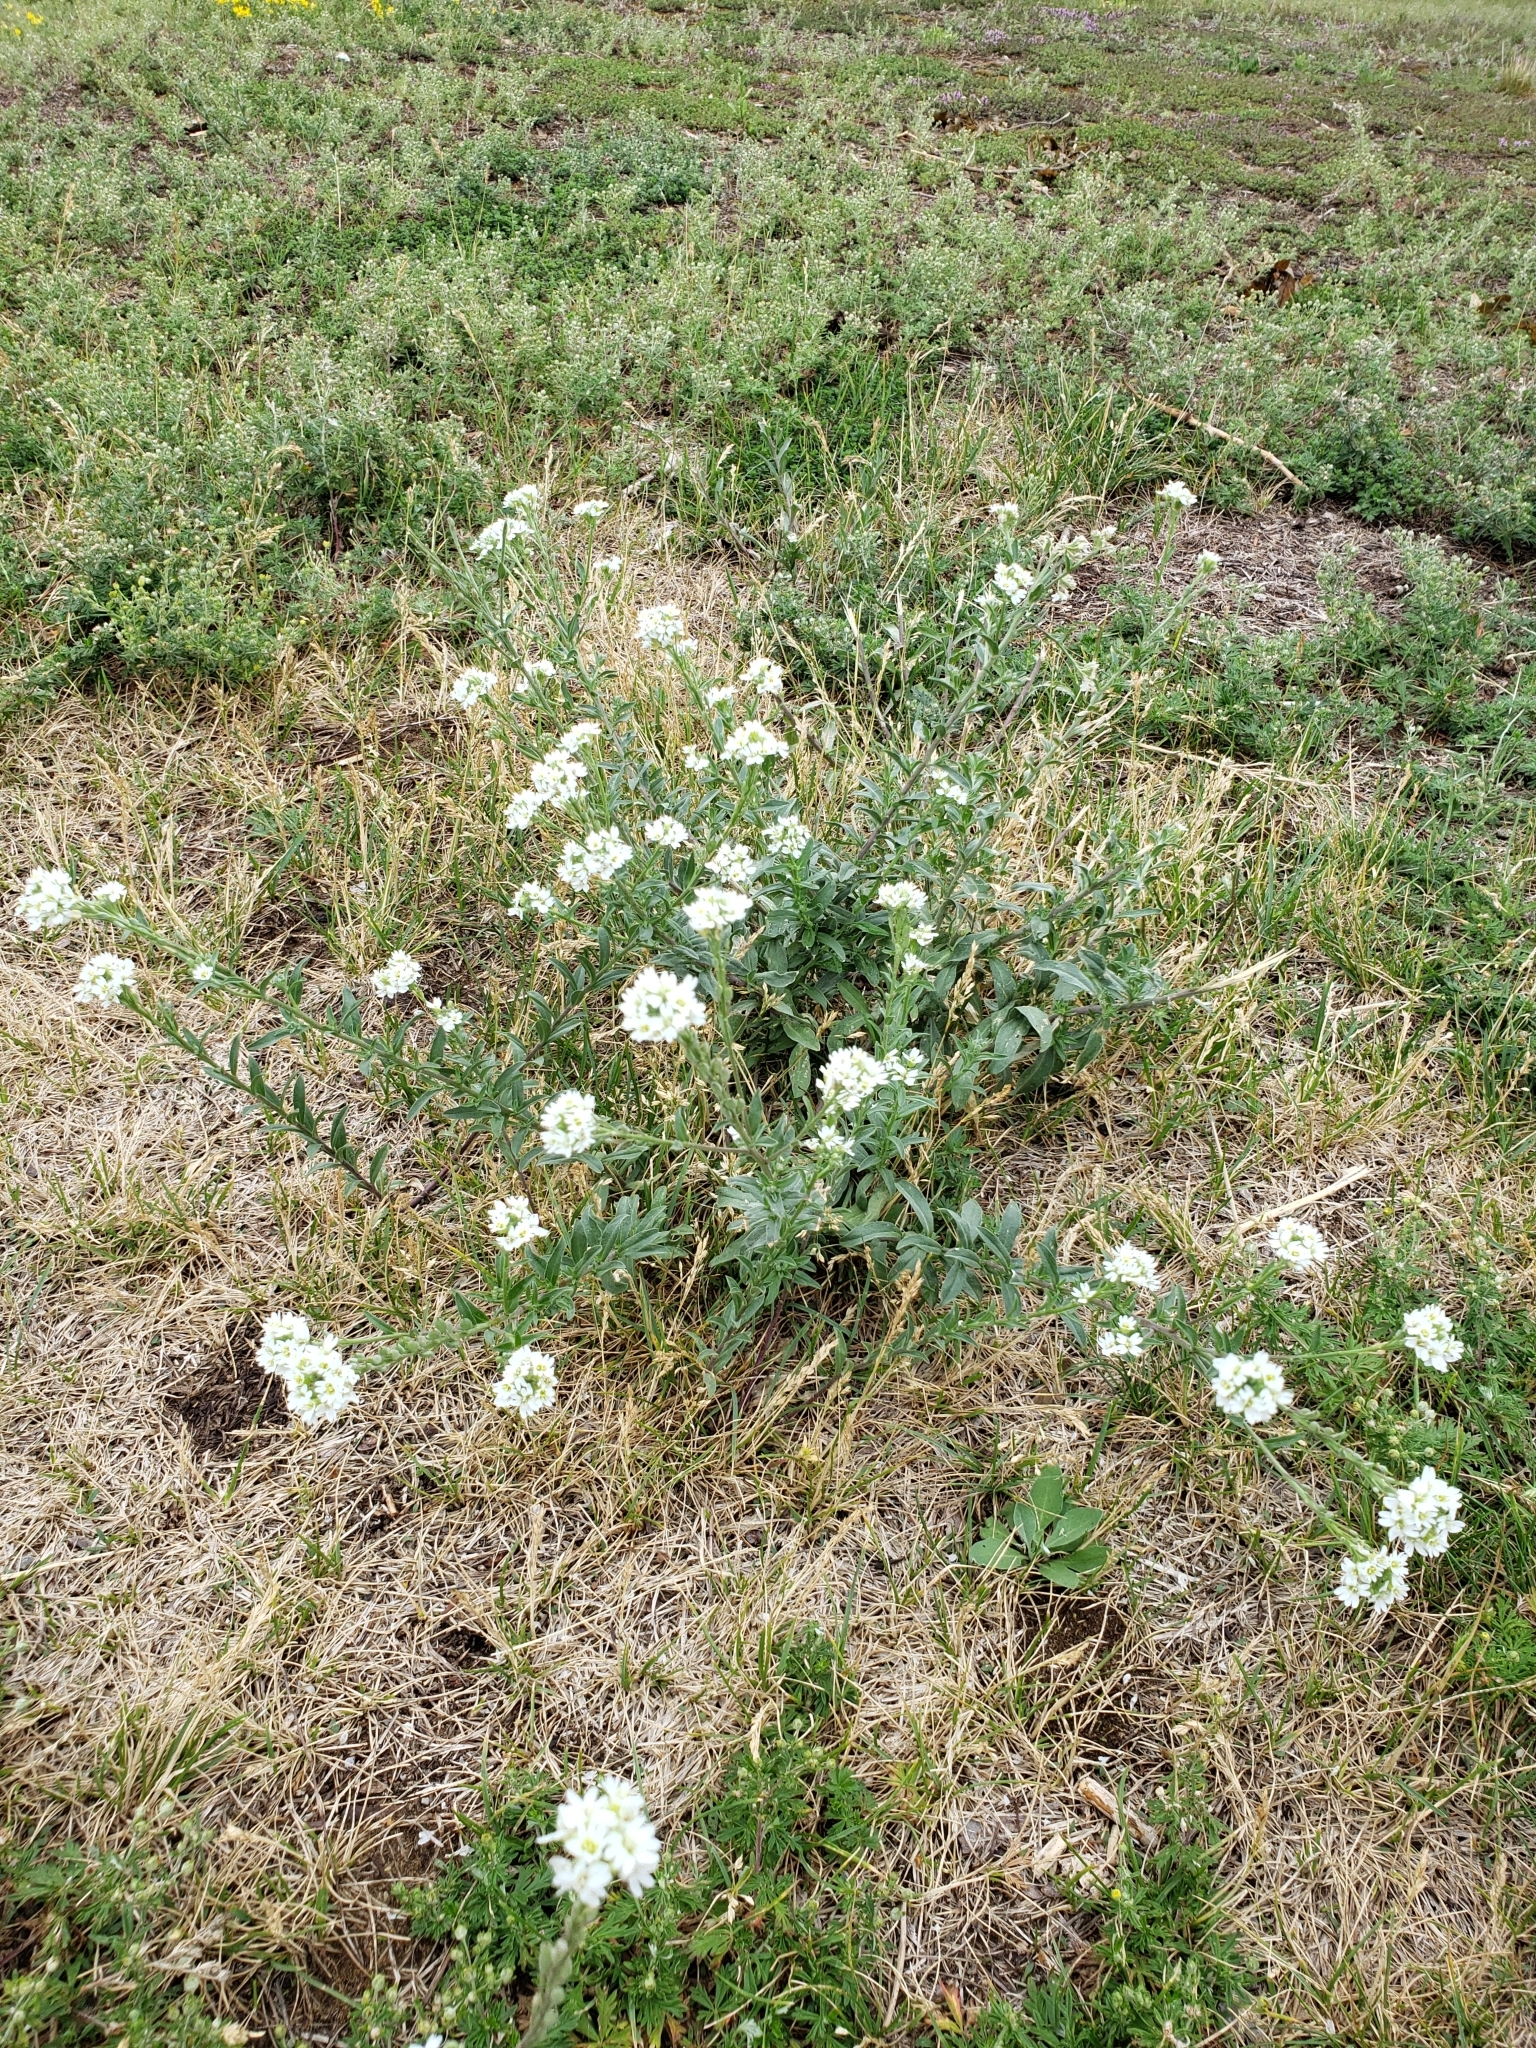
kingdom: Plantae
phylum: Tracheophyta
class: Magnoliopsida
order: Brassicales
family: Brassicaceae
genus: Berteroa
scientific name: Berteroa incana
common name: Hoary alison
